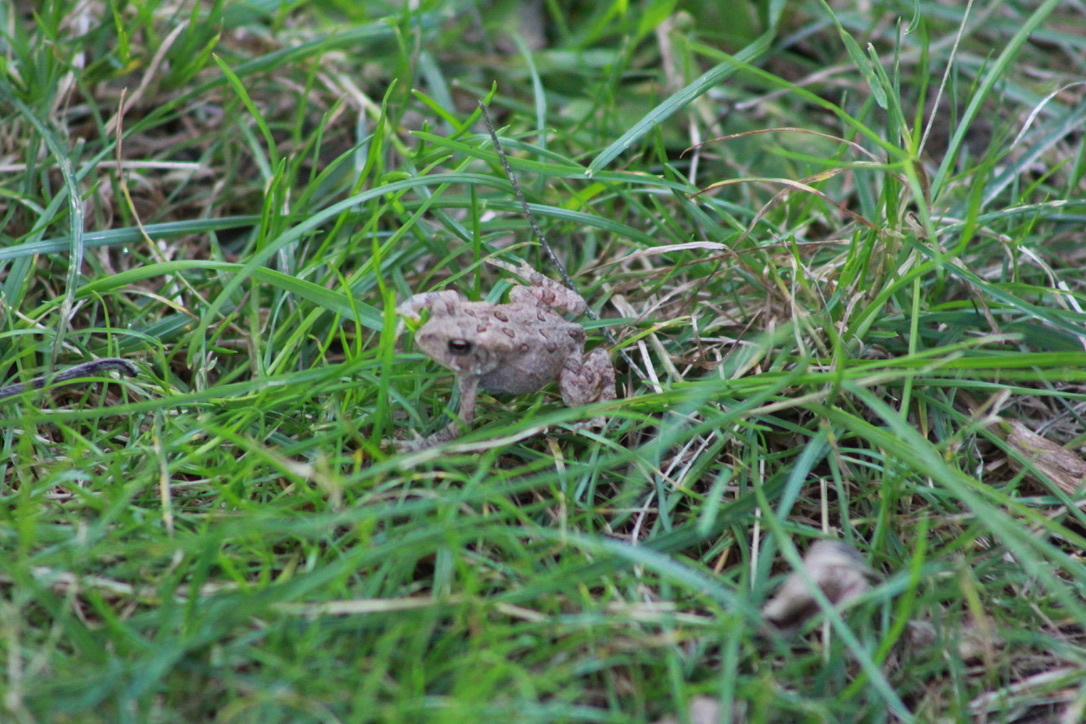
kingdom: Animalia
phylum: Chordata
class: Amphibia
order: Anura
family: Bufonidae
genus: Anaxyrus
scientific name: Anaxyrus americanus
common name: American toad
